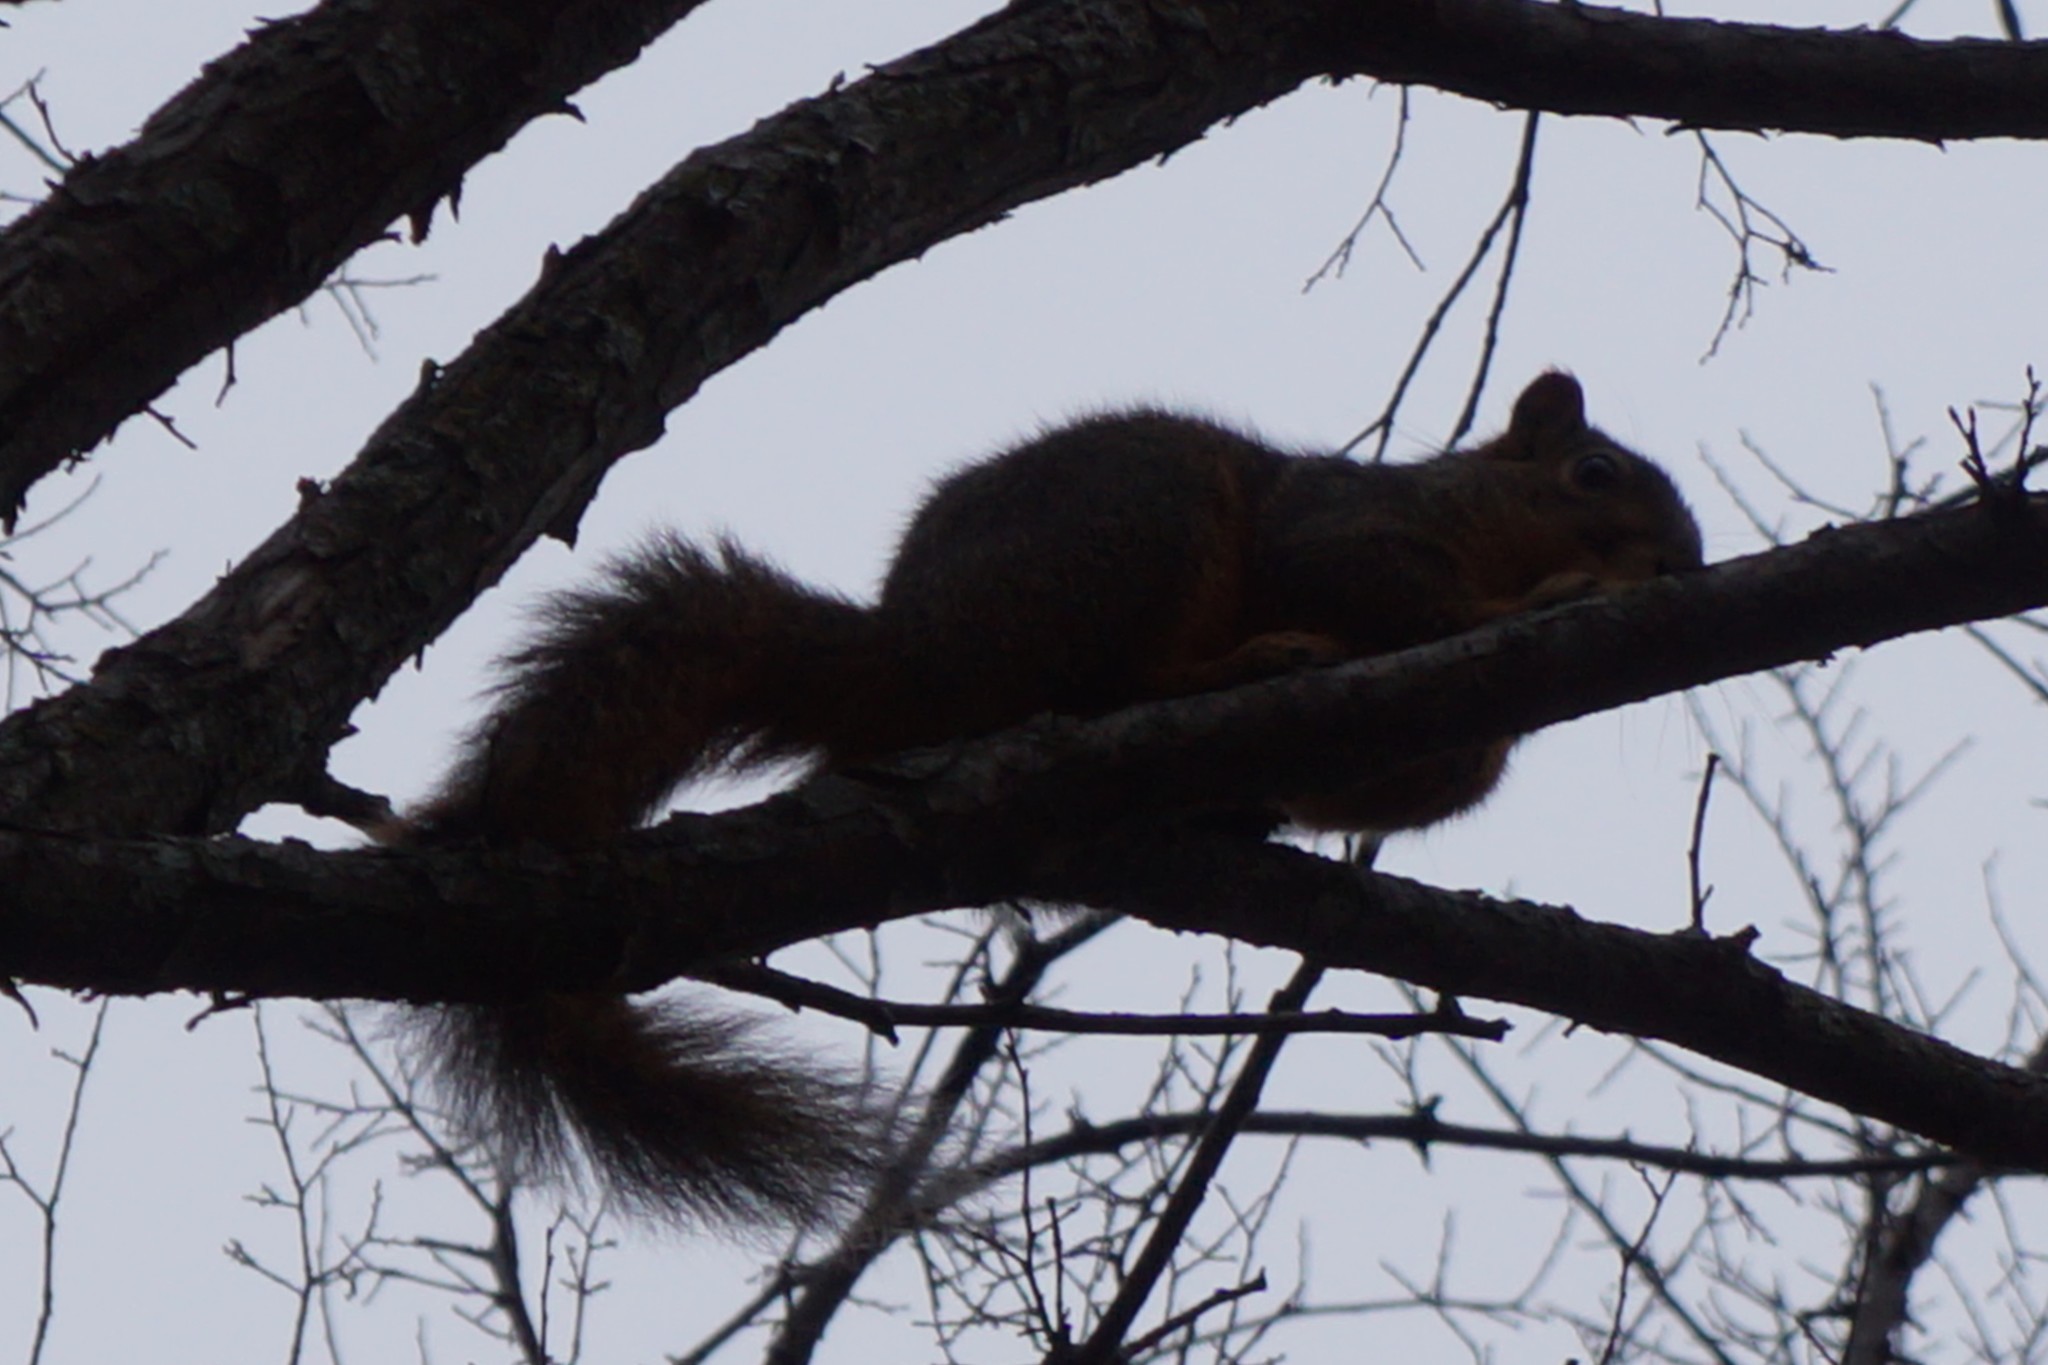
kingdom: Animalia
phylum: Chordata
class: Mammalia
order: Rodentia
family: Sciuridae
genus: Sciurus
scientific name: Sciurus niger
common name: Fox squirrel
